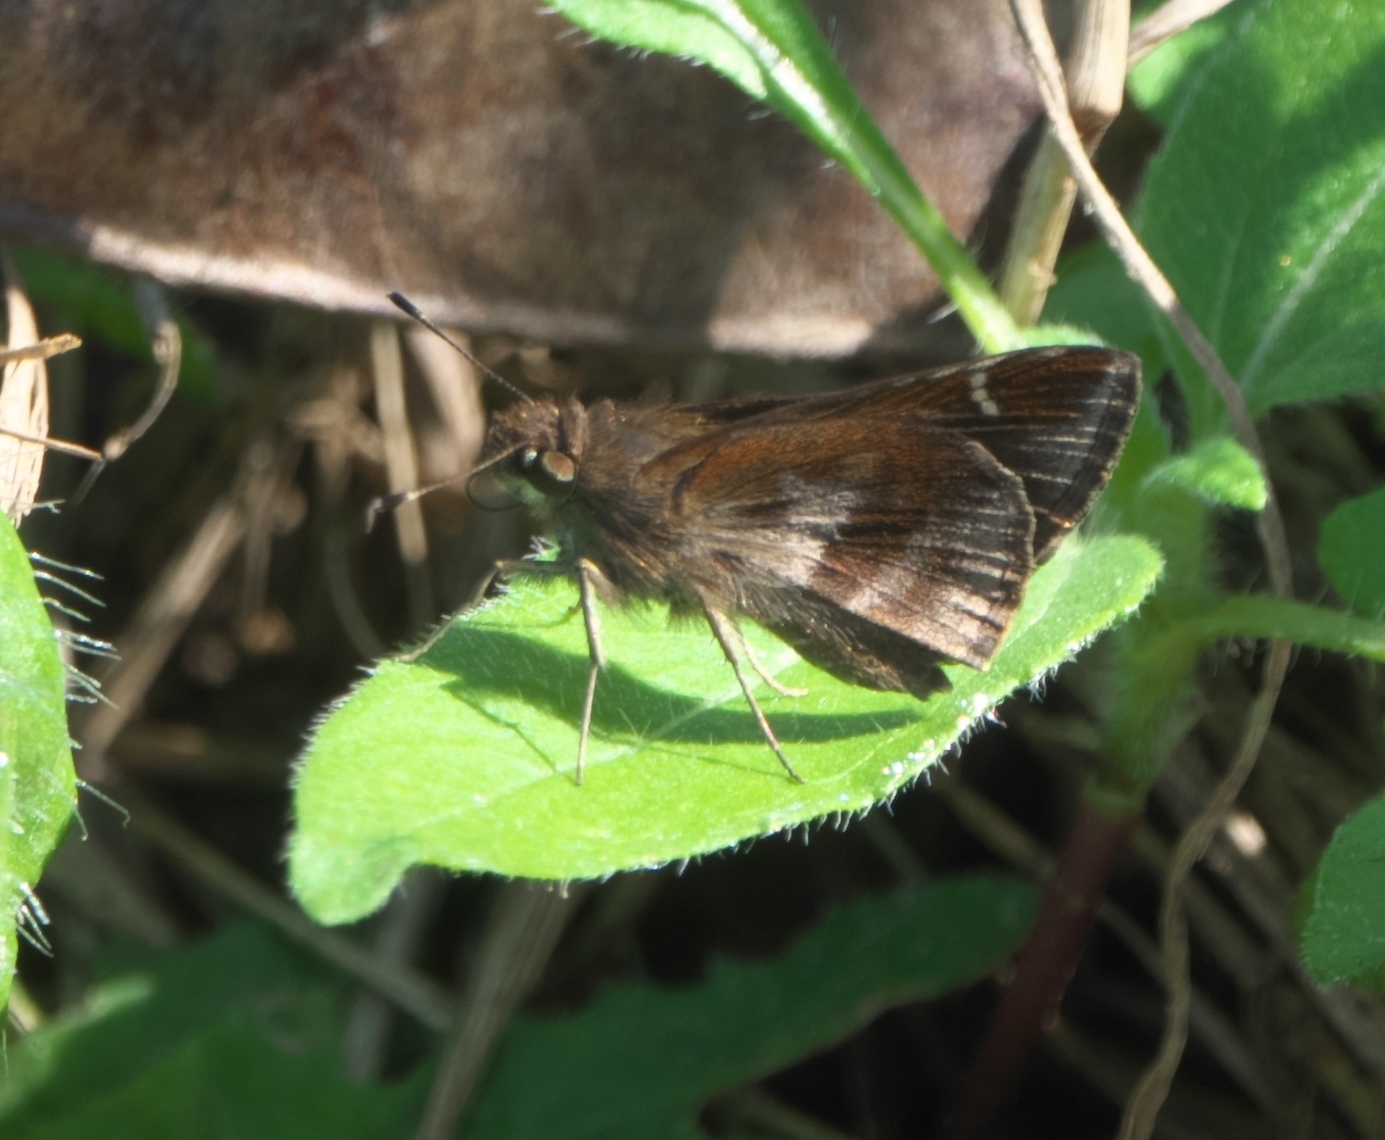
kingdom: Animalia
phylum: Arthropoda
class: Insecta
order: Lepidoptera
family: Hesperiidae
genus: Lerema
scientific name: Lerema accius
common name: Clouded skipper
